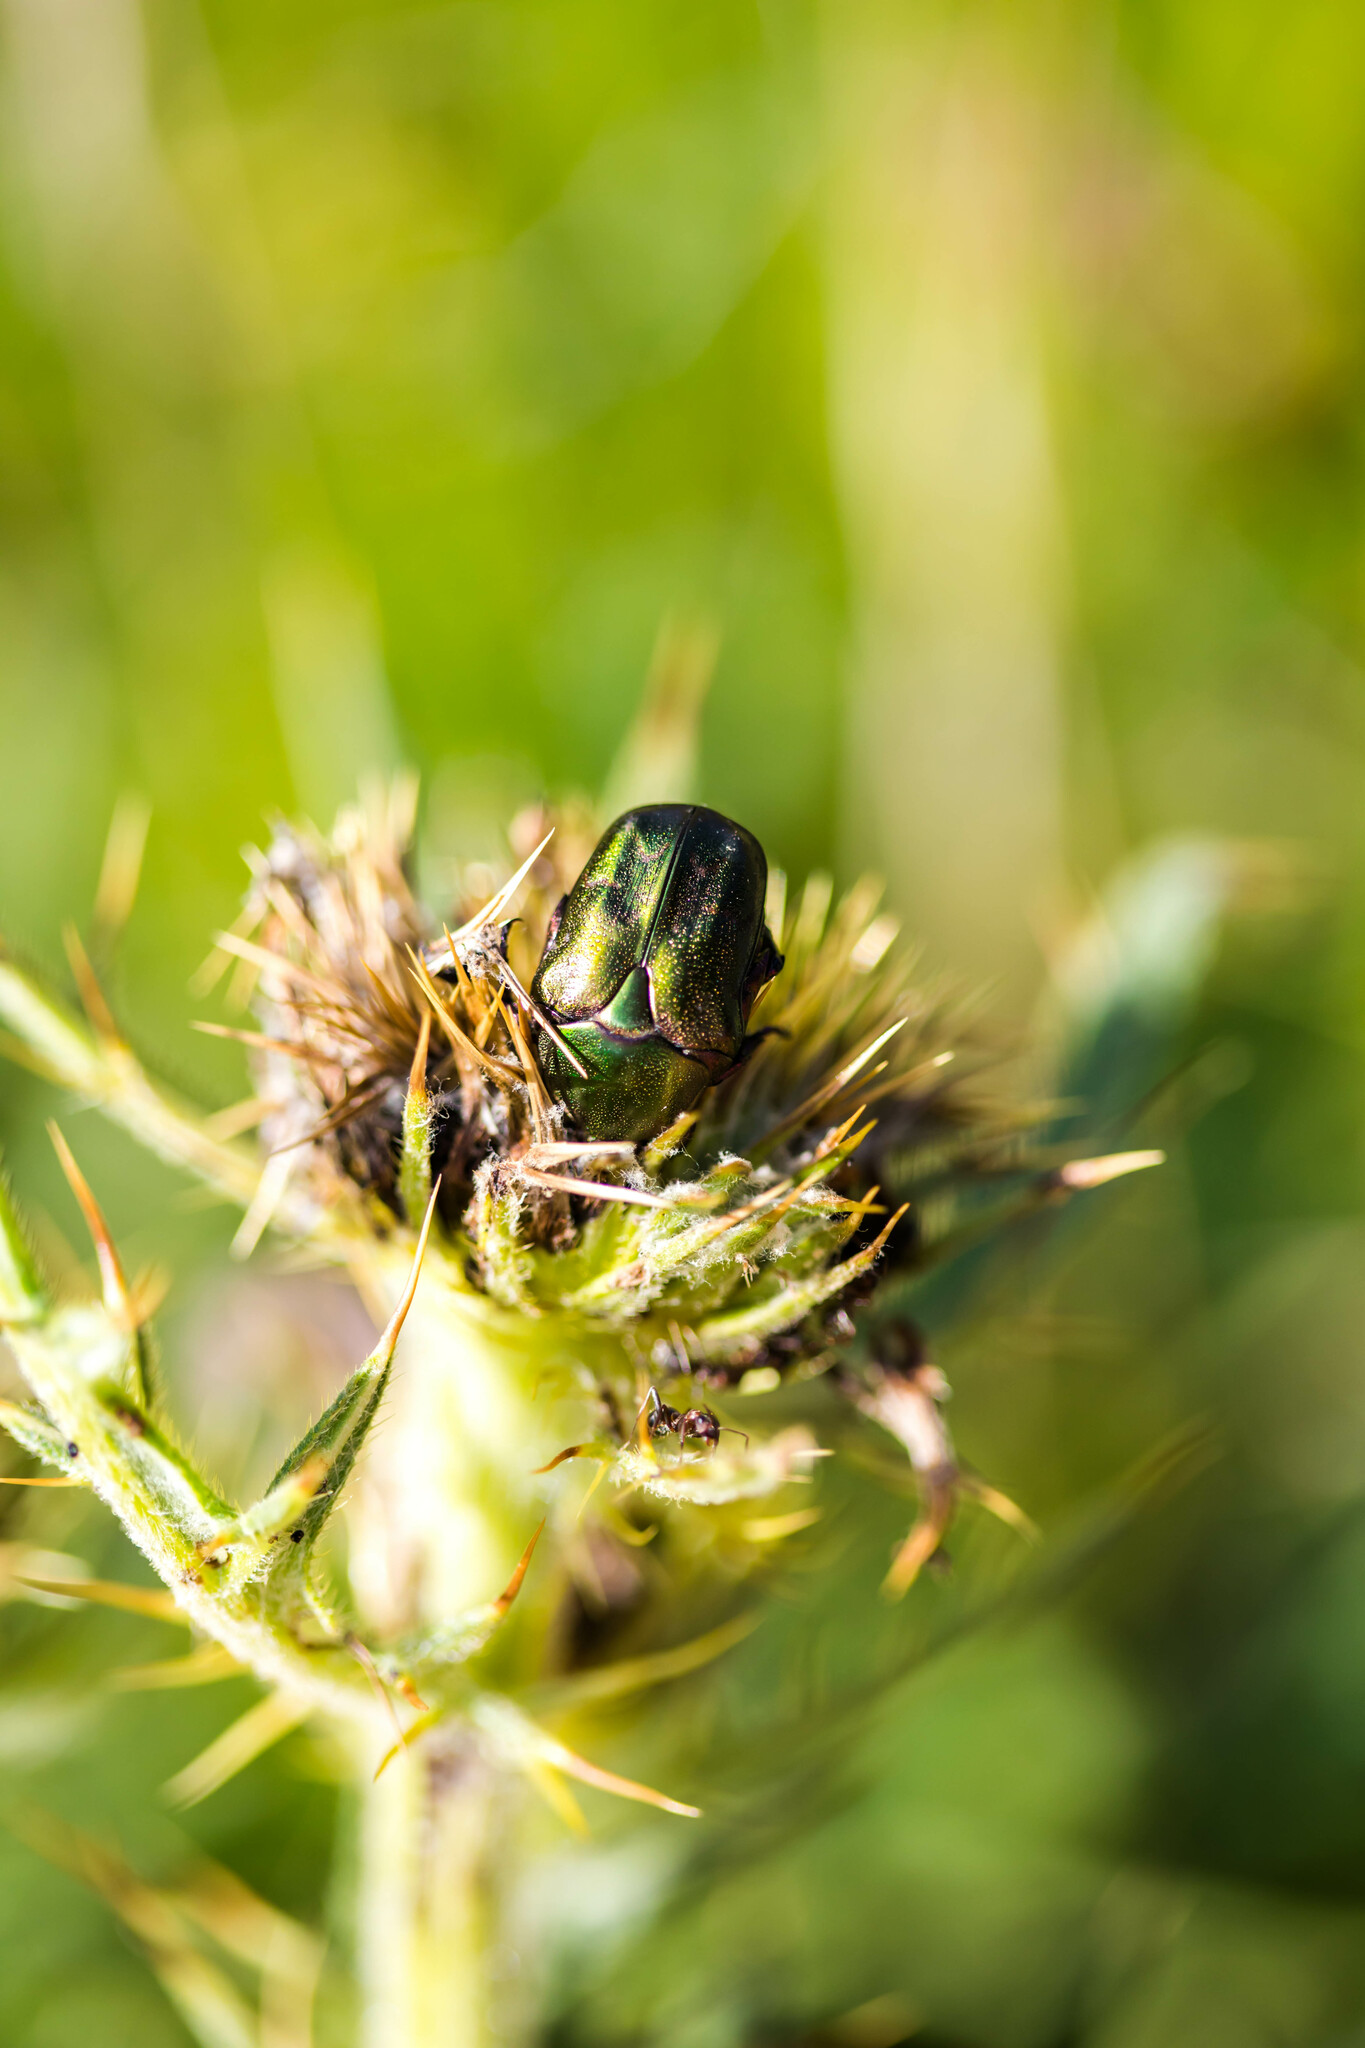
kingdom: Animalia
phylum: Arthropoda
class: Insecta
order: Coleoptera
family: Scarabaeidae
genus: Protaetia
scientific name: Protaetia cuprea
